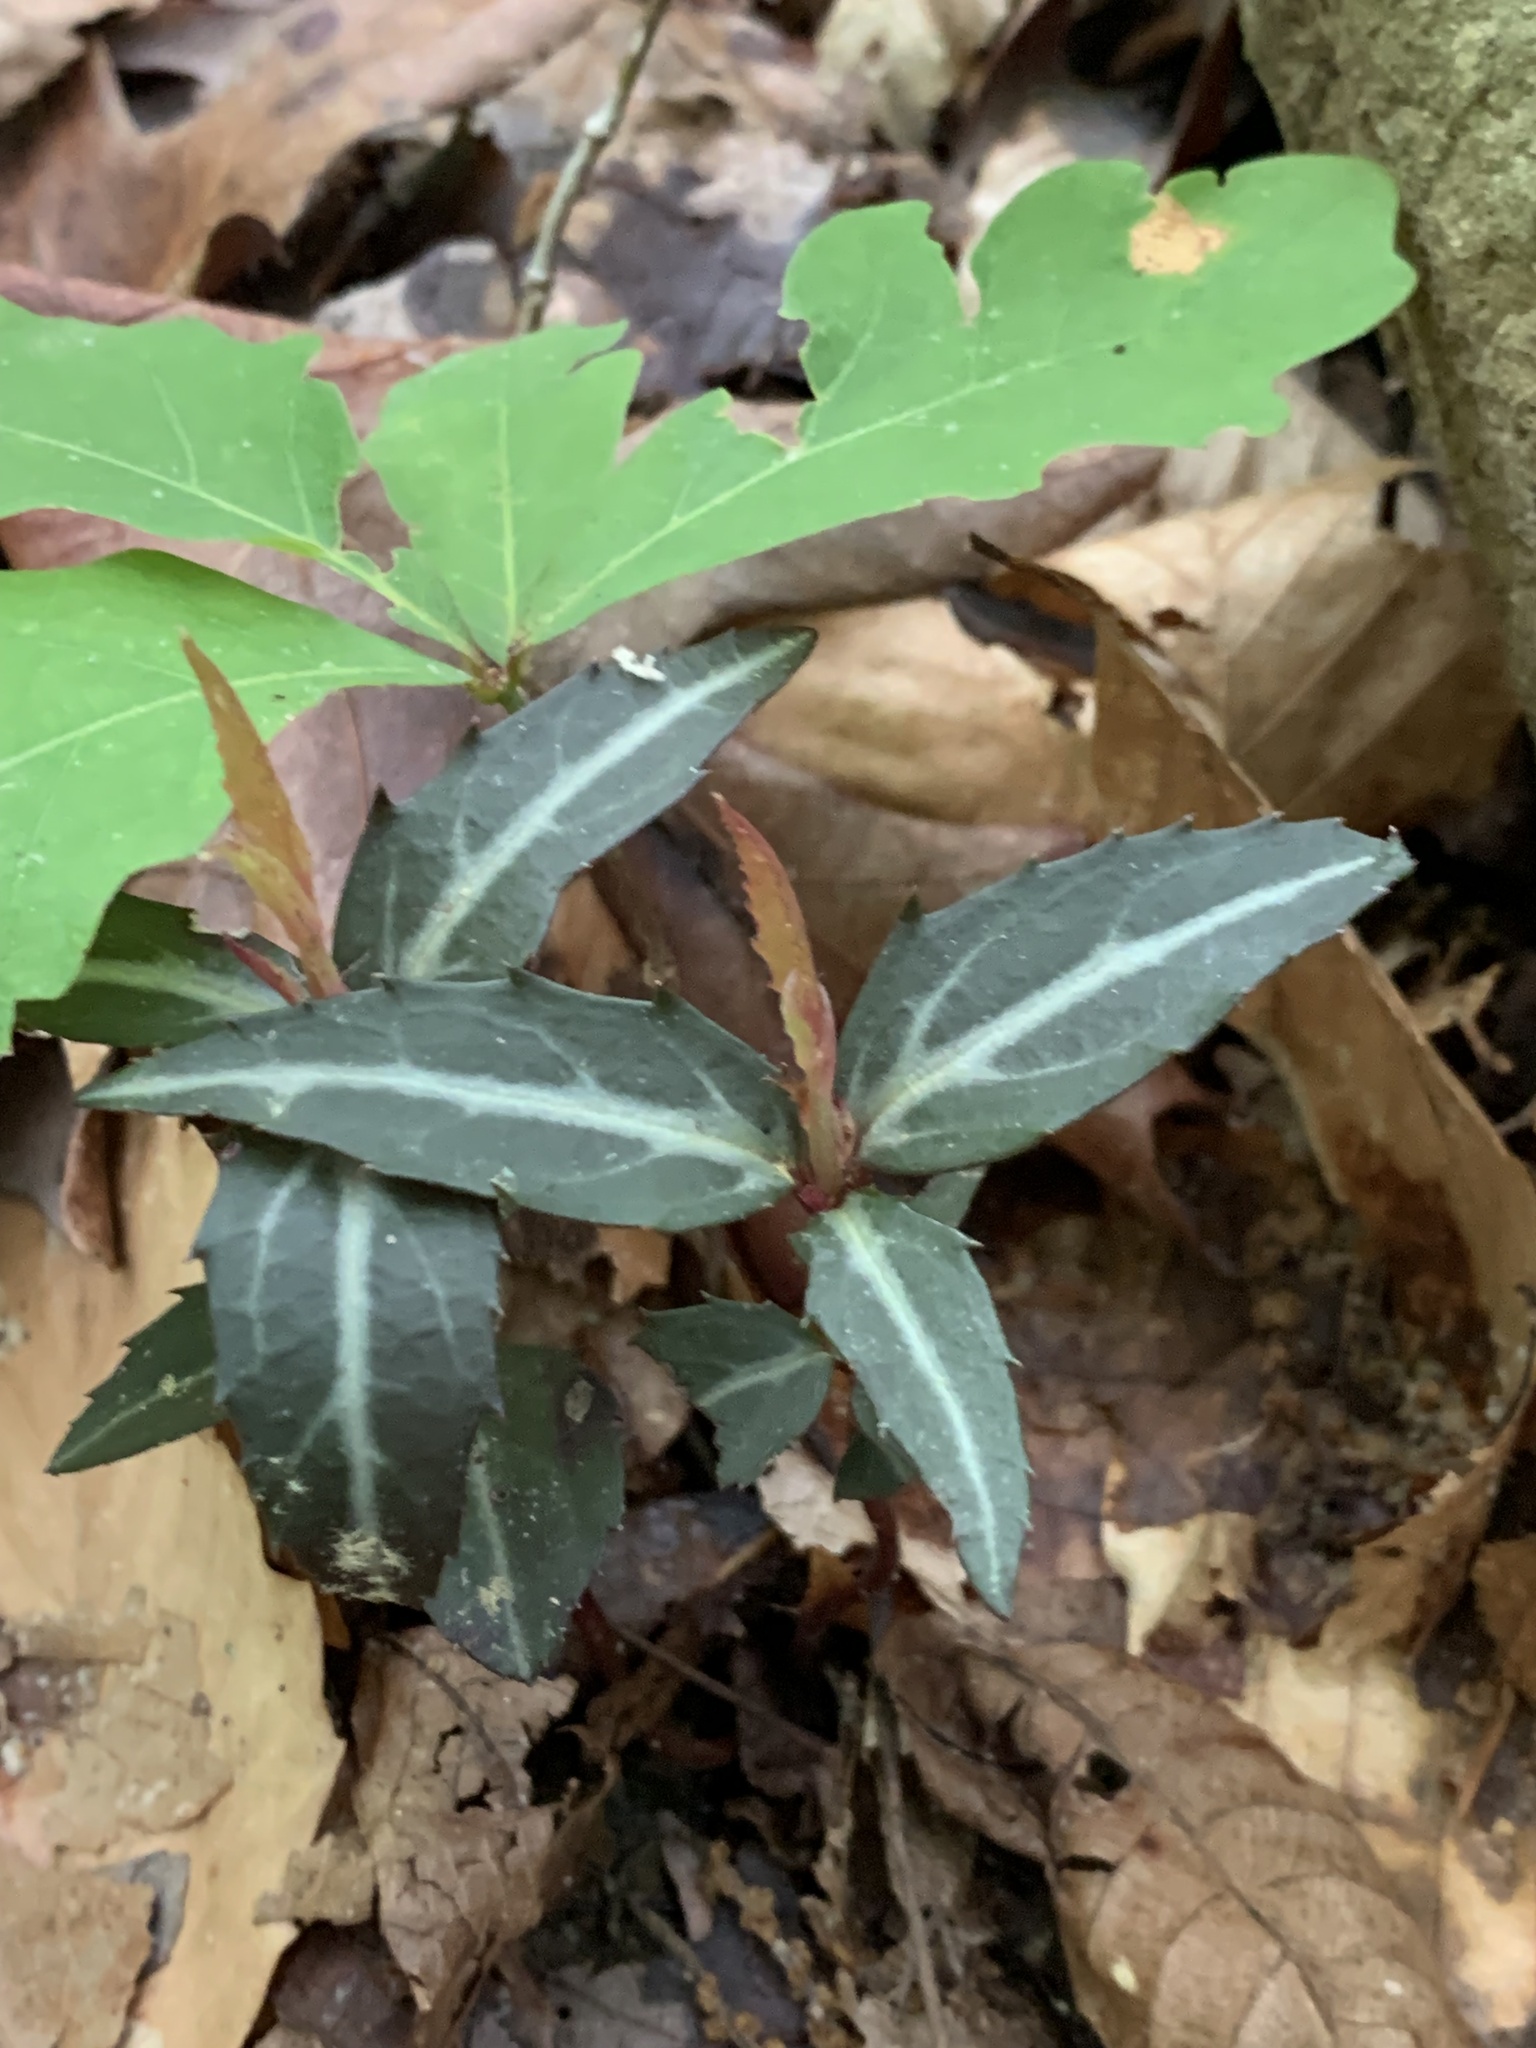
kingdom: Plantae
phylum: Tracheophyta
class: Magnoliopsida
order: Ericales
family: Ericaceae
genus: Chimaphila
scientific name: Chimaphila maculata
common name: Spotted pipsissewa
